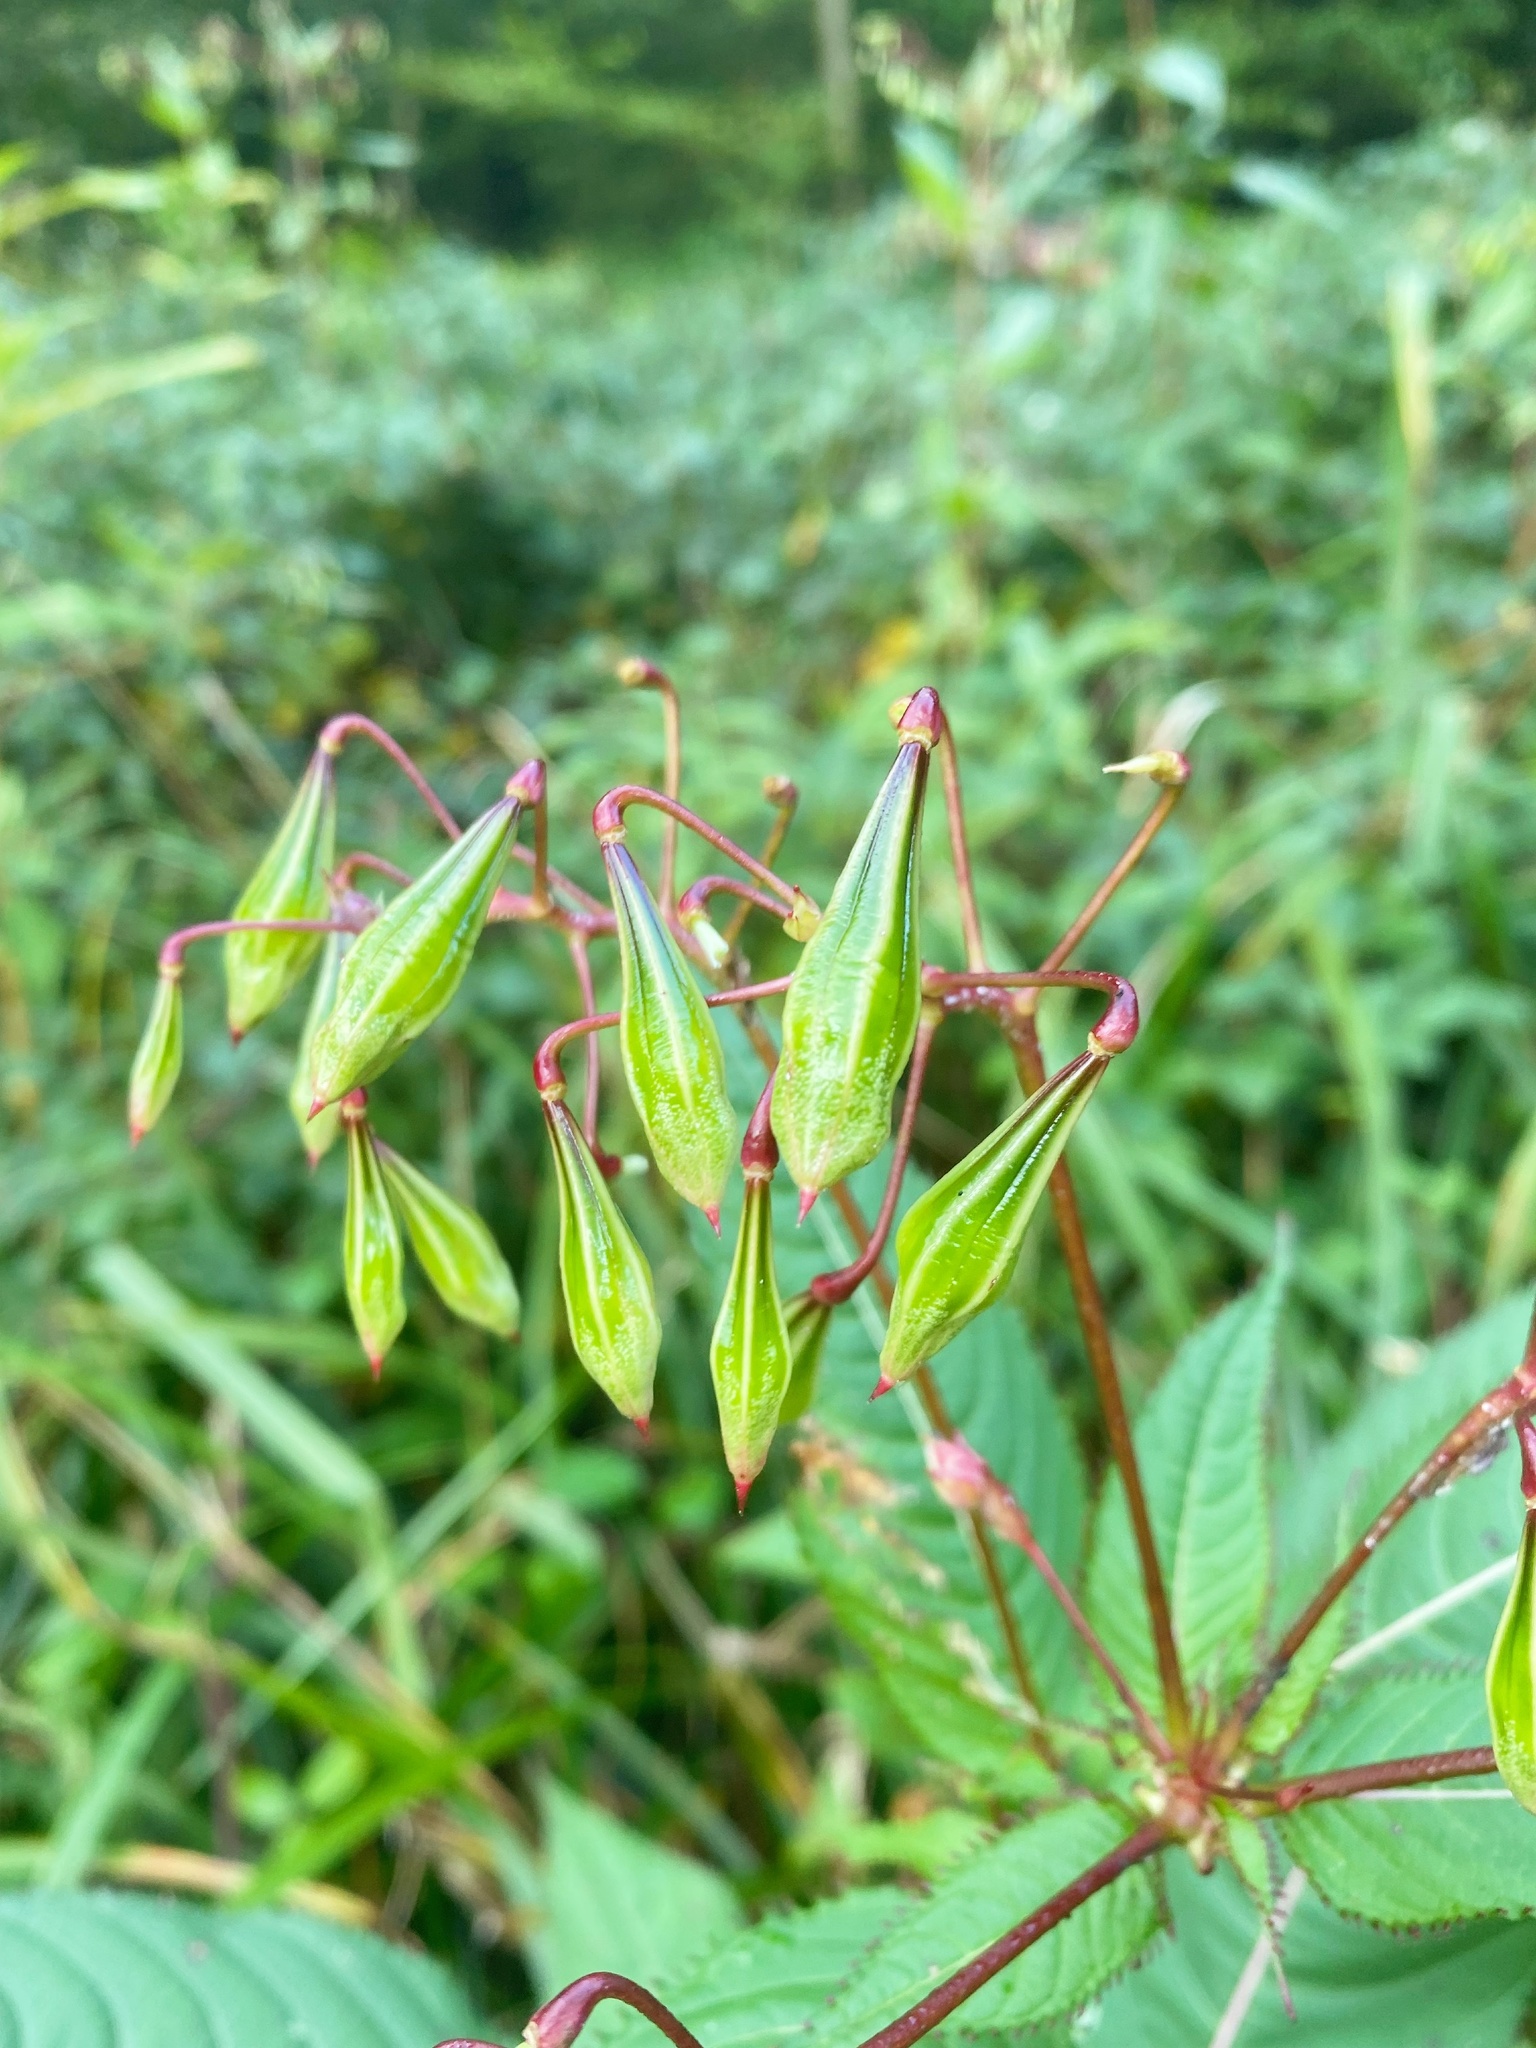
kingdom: Plantae
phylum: Tracheophyta
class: Magnoliopsida
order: Ericales
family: Balsaminaceae
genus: Impatiens
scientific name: Impatiens glandulifera
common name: Himalayan balsam
